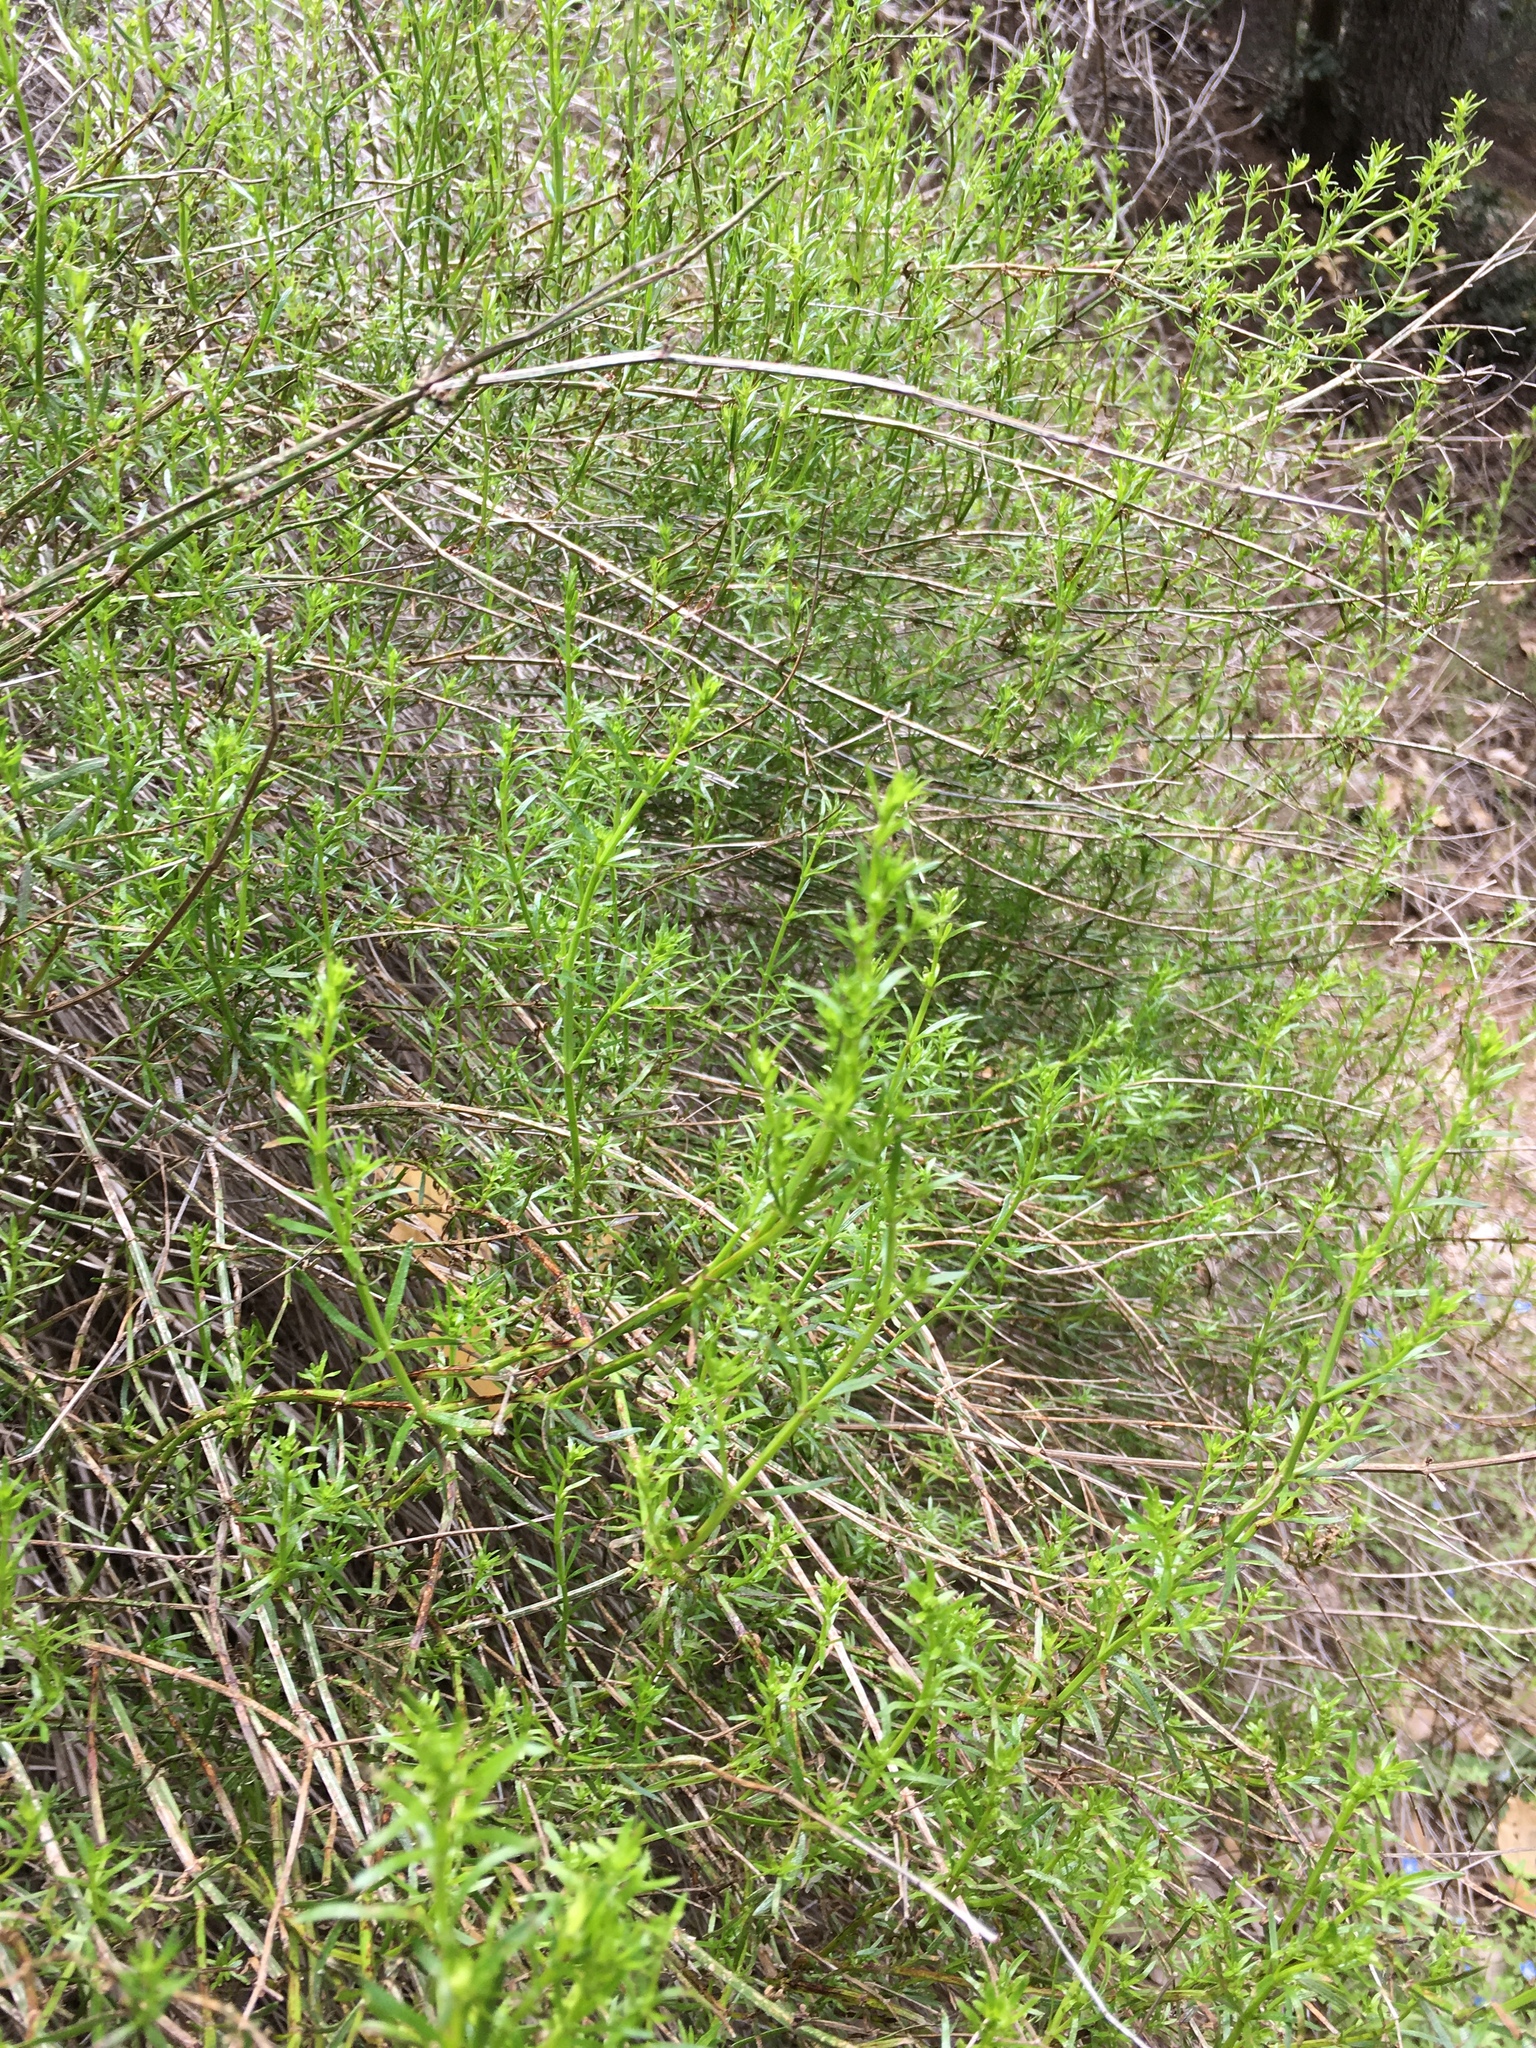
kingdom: Plantae
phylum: Tracheophyta
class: Magnoliopsida
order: Gentianales
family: Rubiaceae
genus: Galium
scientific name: Galium angustifolium
